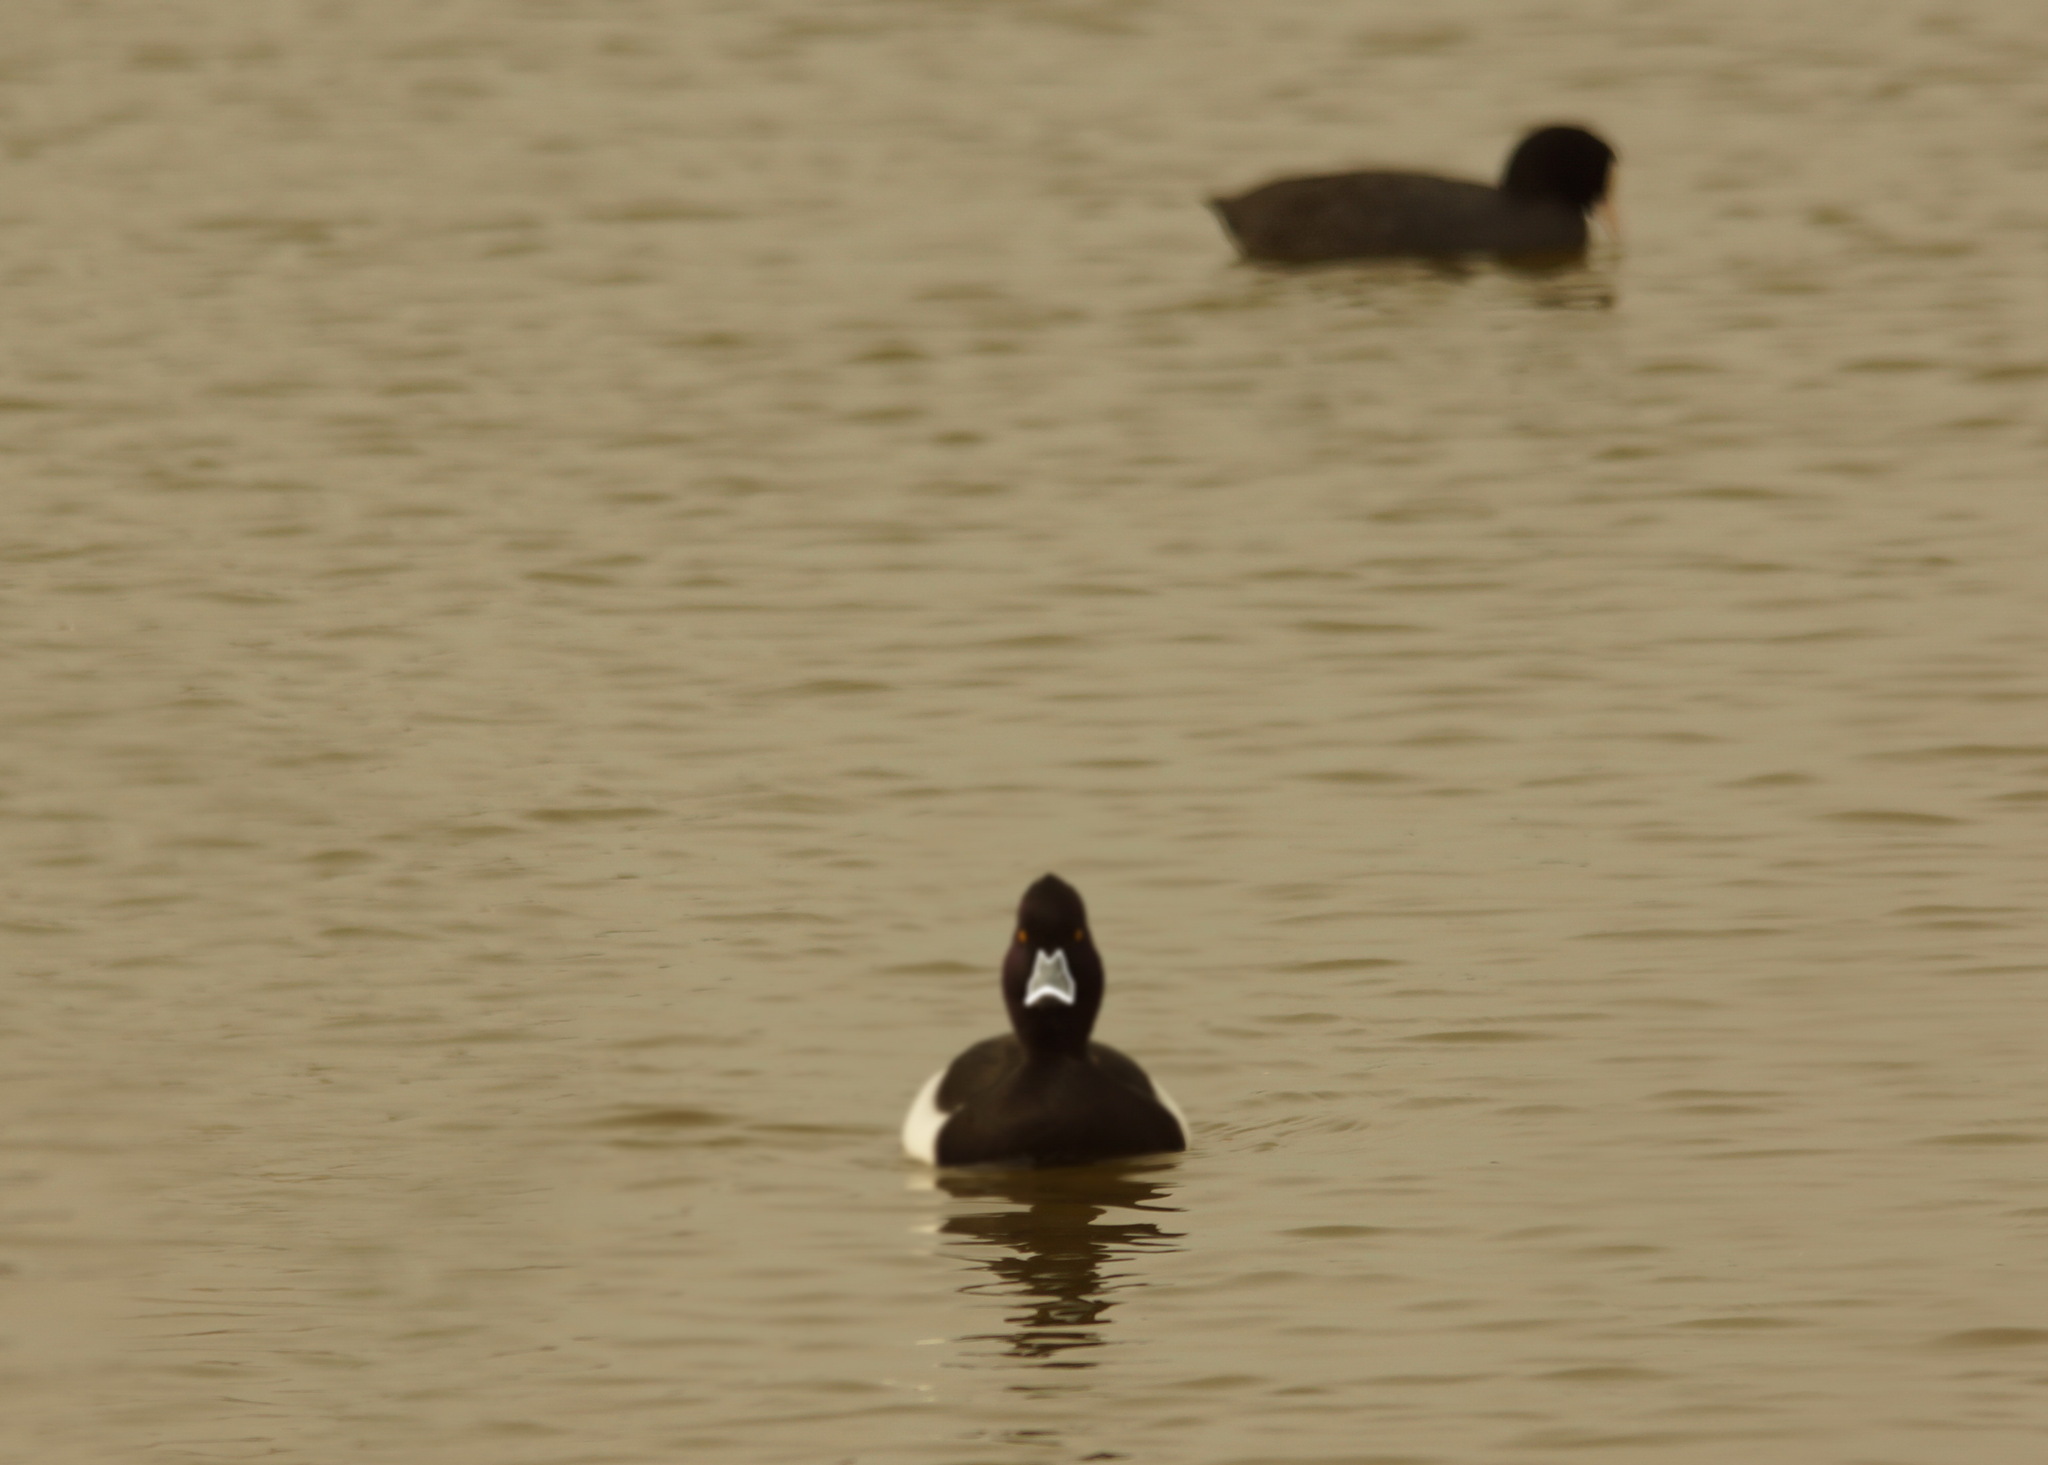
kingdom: Animalia
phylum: Chordata
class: Aves
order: Anseriformes
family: Anatidae
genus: Aythya
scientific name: Aythya collaris
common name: Ring-necked duck
